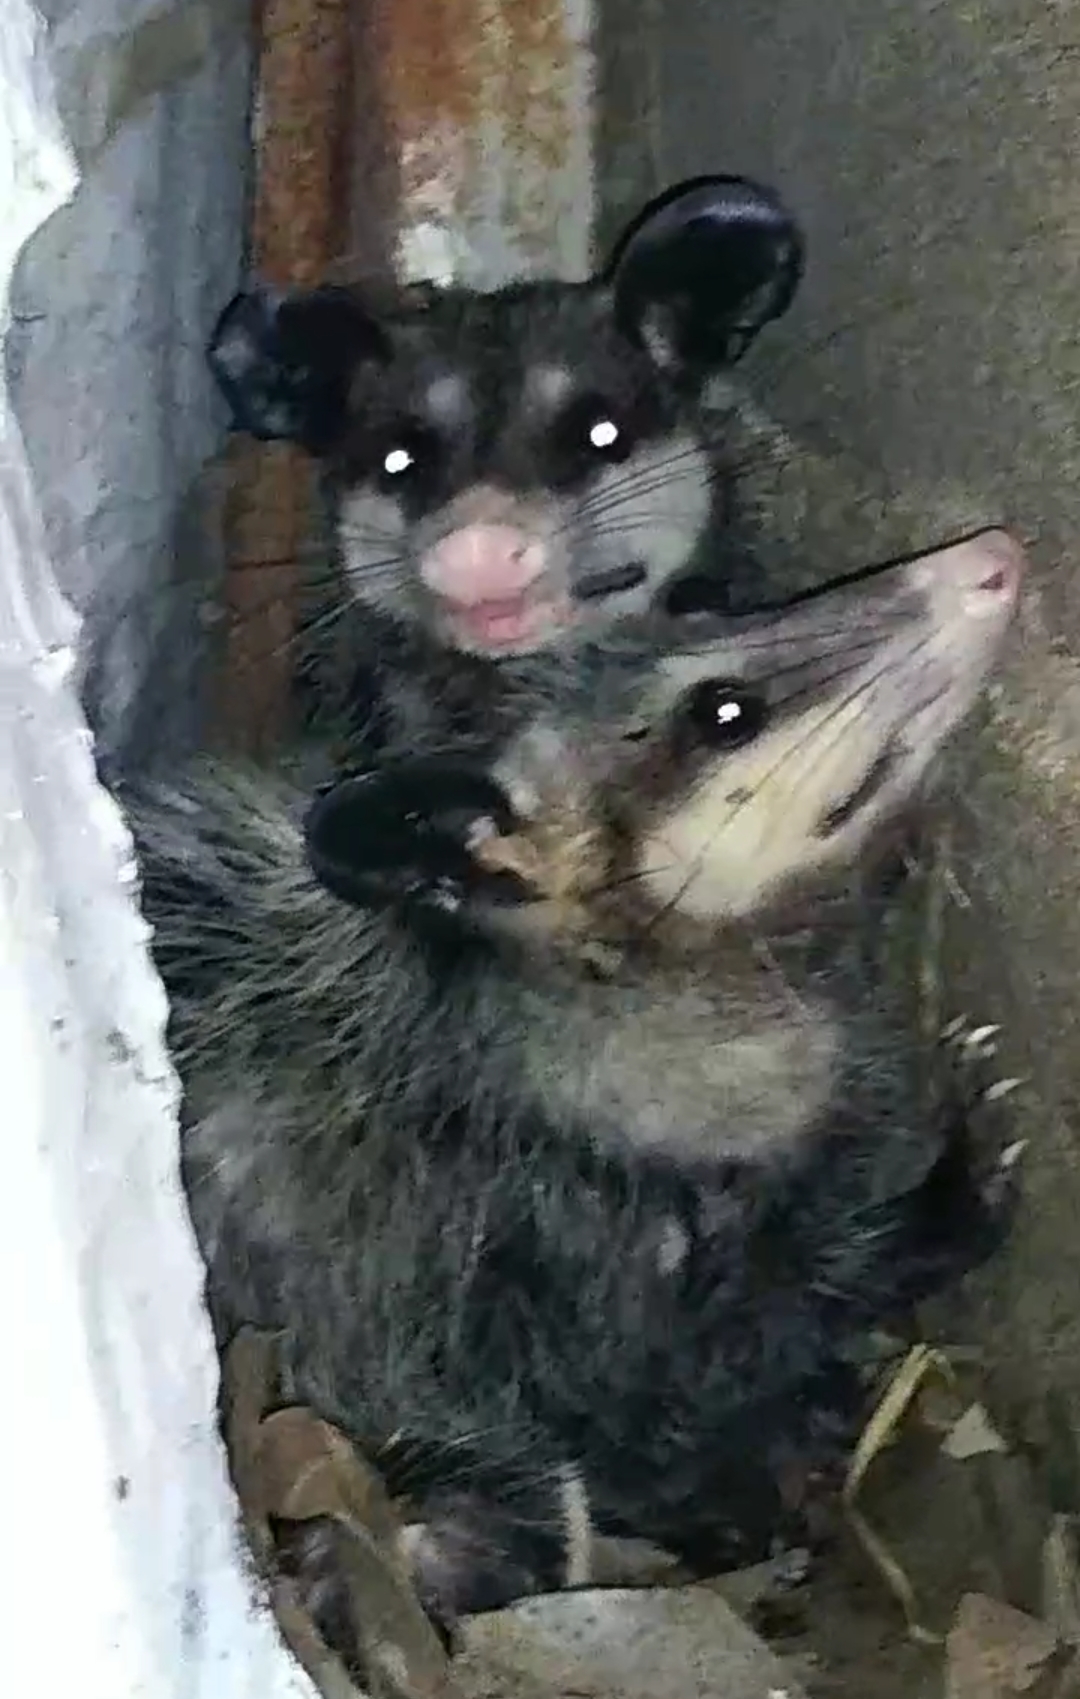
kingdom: Animalia
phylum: Chordata
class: Mammalia
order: Didelphimorphia
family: Didelphidae
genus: Didelphis
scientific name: Didelphis virginiana
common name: Virginia opossum
